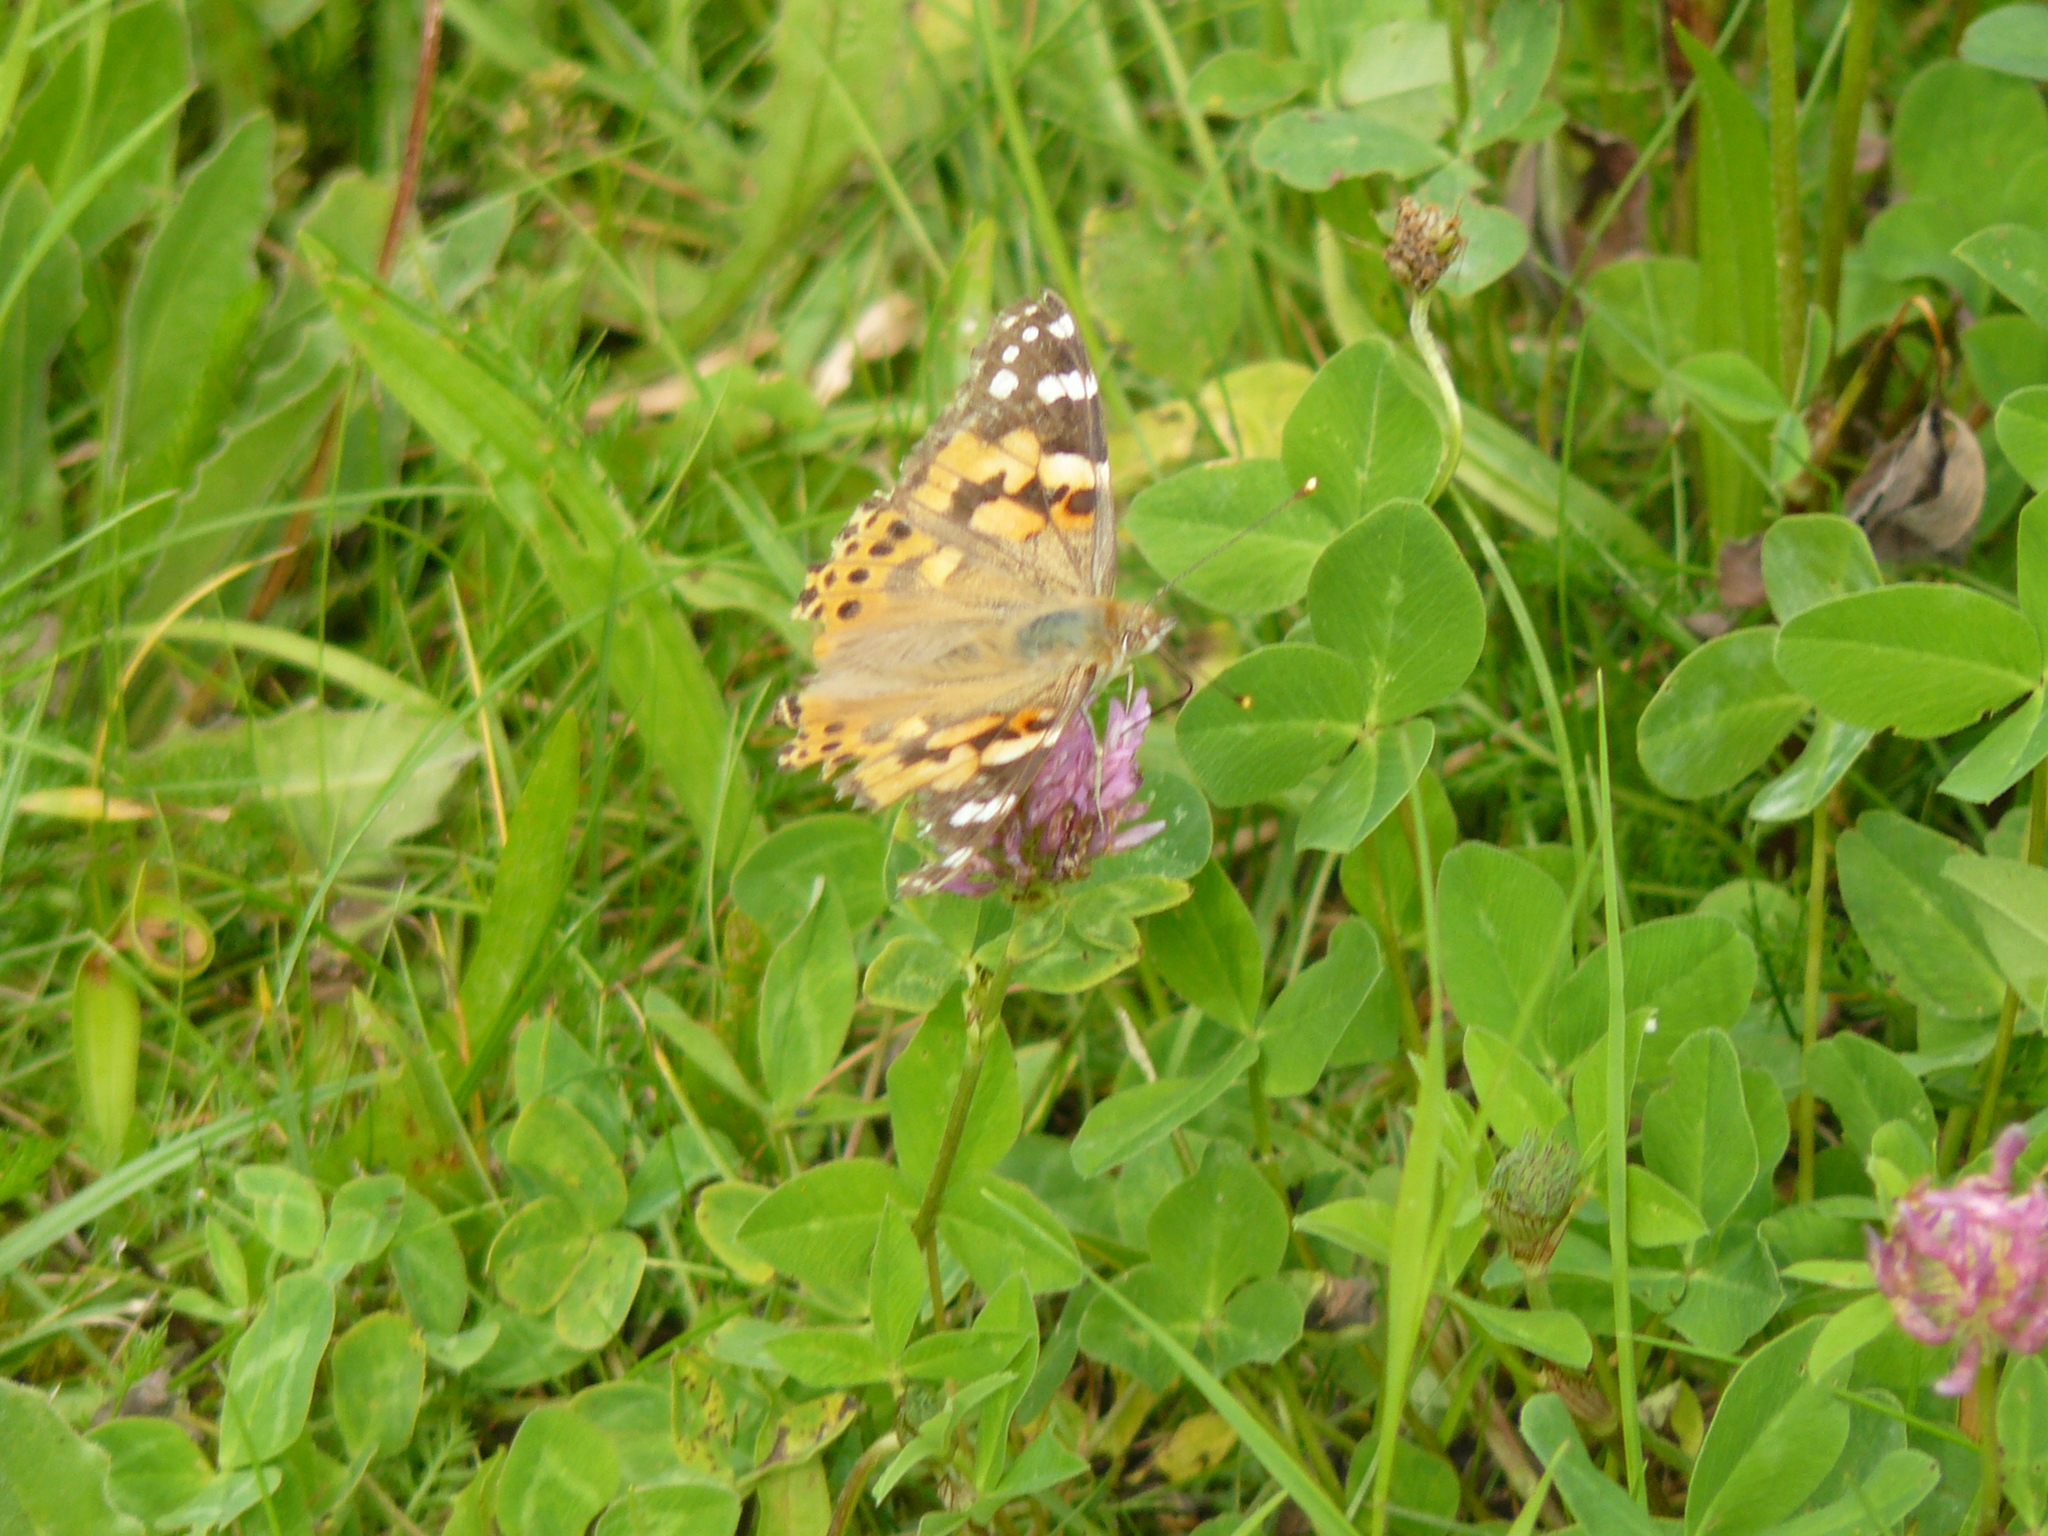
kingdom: Animalia
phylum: Arthropoda
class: Insecta
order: Lepidoptera
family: Nymphalidae
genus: Vanessa
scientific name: Vanessa cardui
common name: Painted lady
